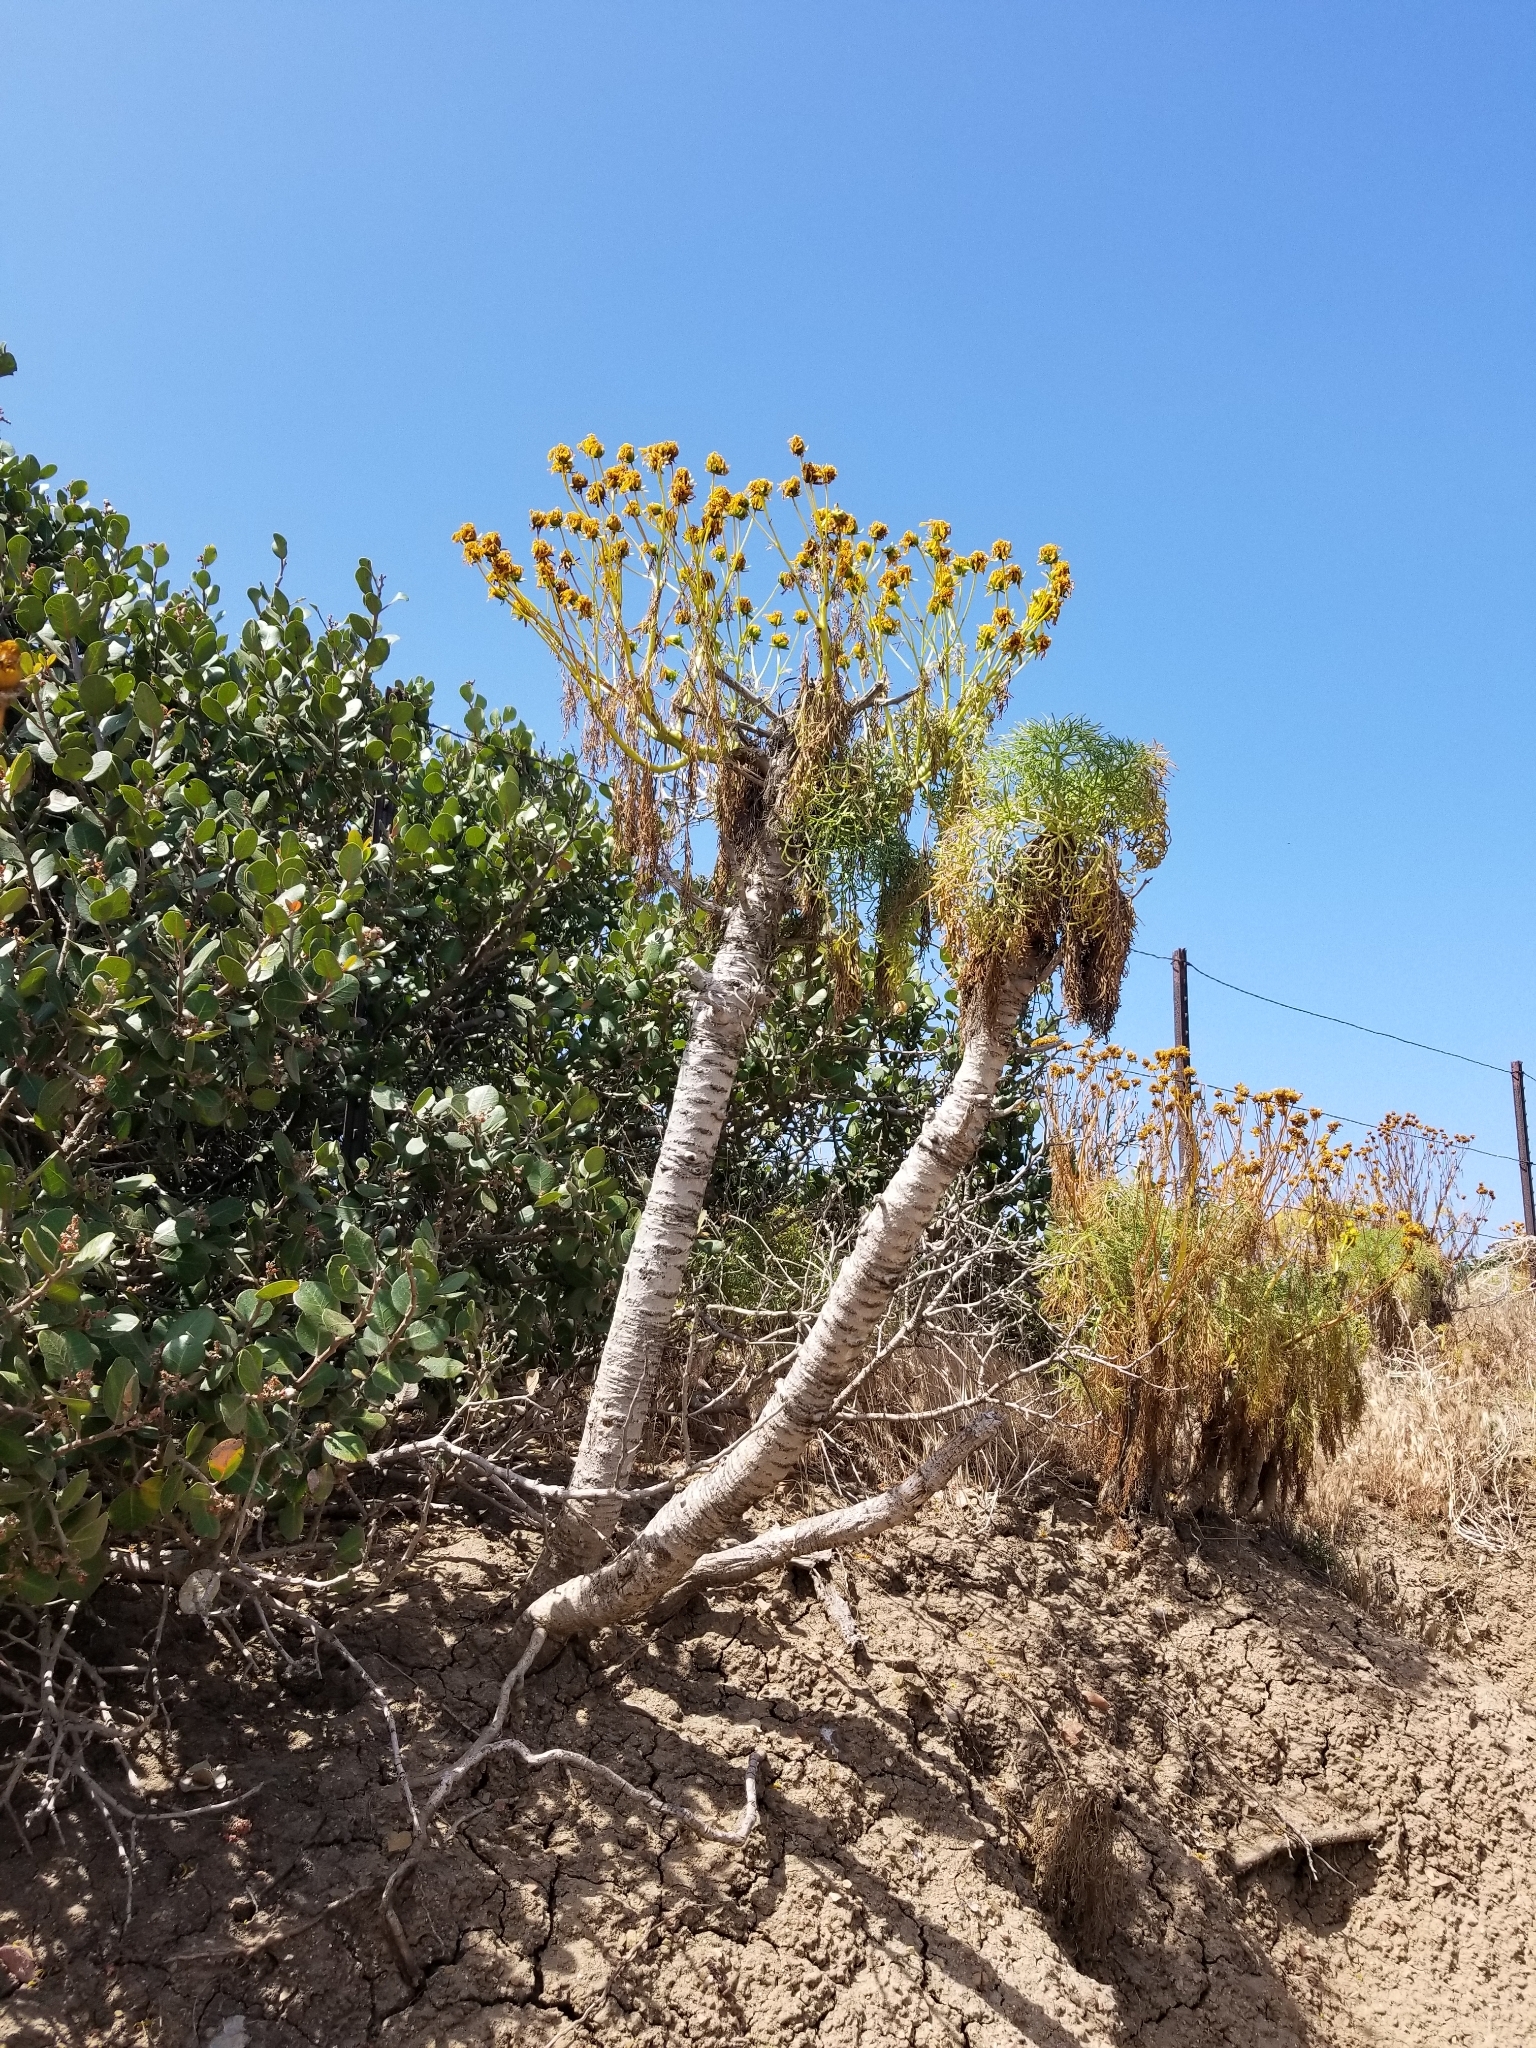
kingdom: Plantae
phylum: Tracheophyta
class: Magnoliopsida
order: Asterales
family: Asteraceae
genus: Coreopsis
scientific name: Coreopsis gigantea
